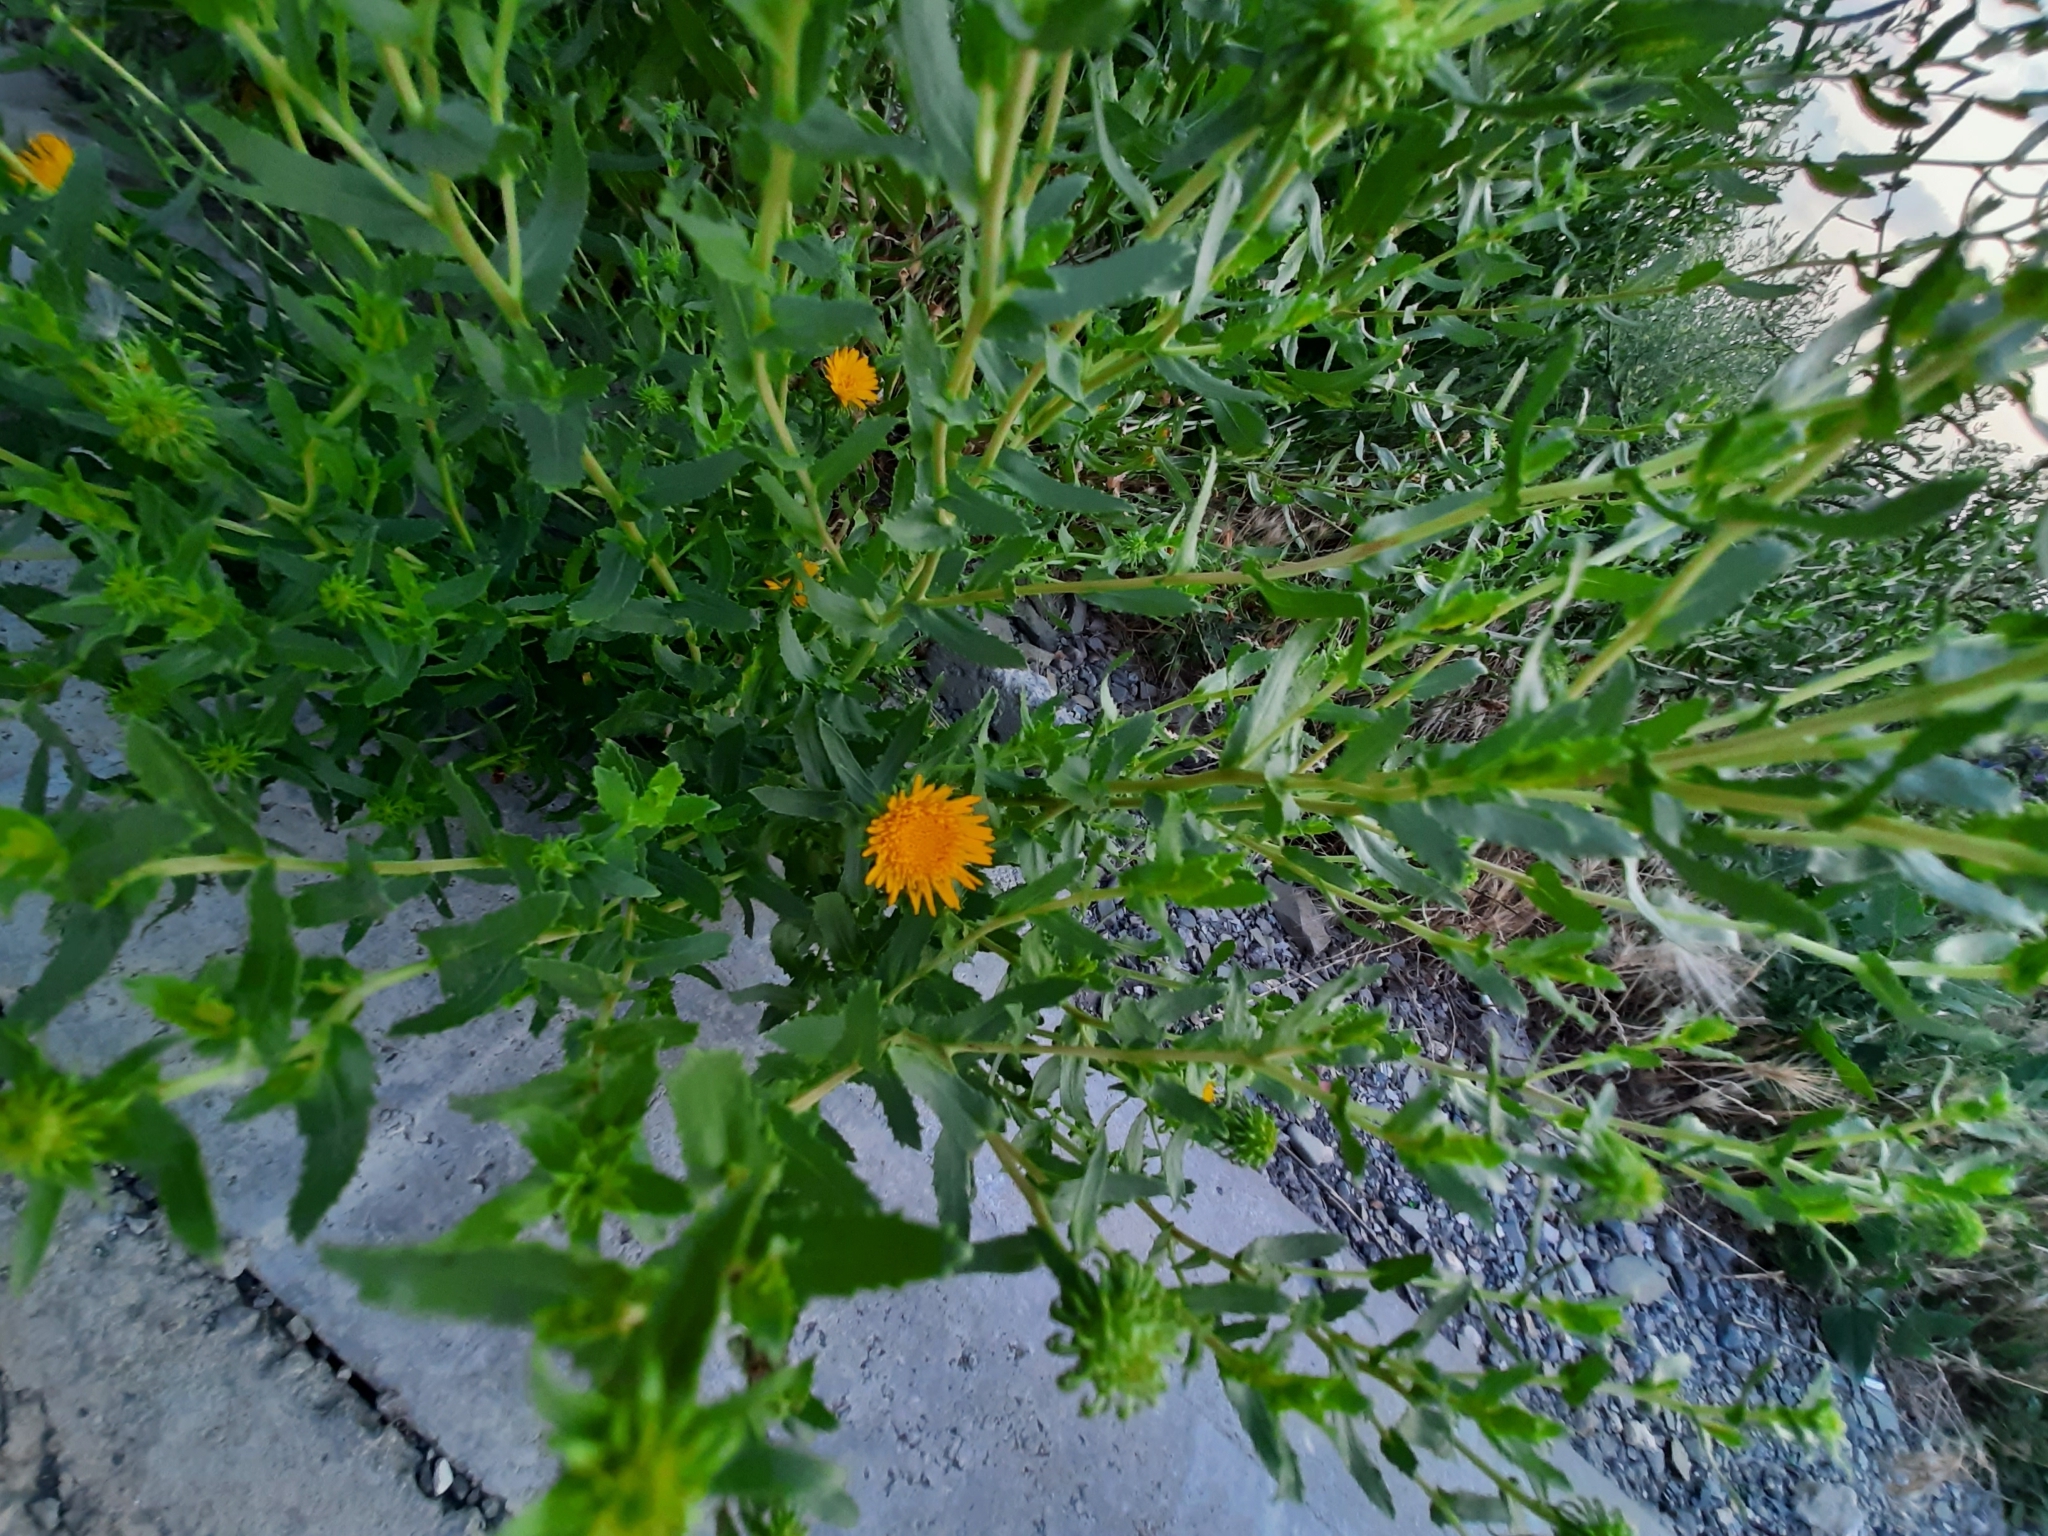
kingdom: Plantae
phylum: Tracheophyta
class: Magnoliopsida
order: Asterales
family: Asteraceae
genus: Grindelia
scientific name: Grindelia squarrosa
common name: Curly-cup gumweed
